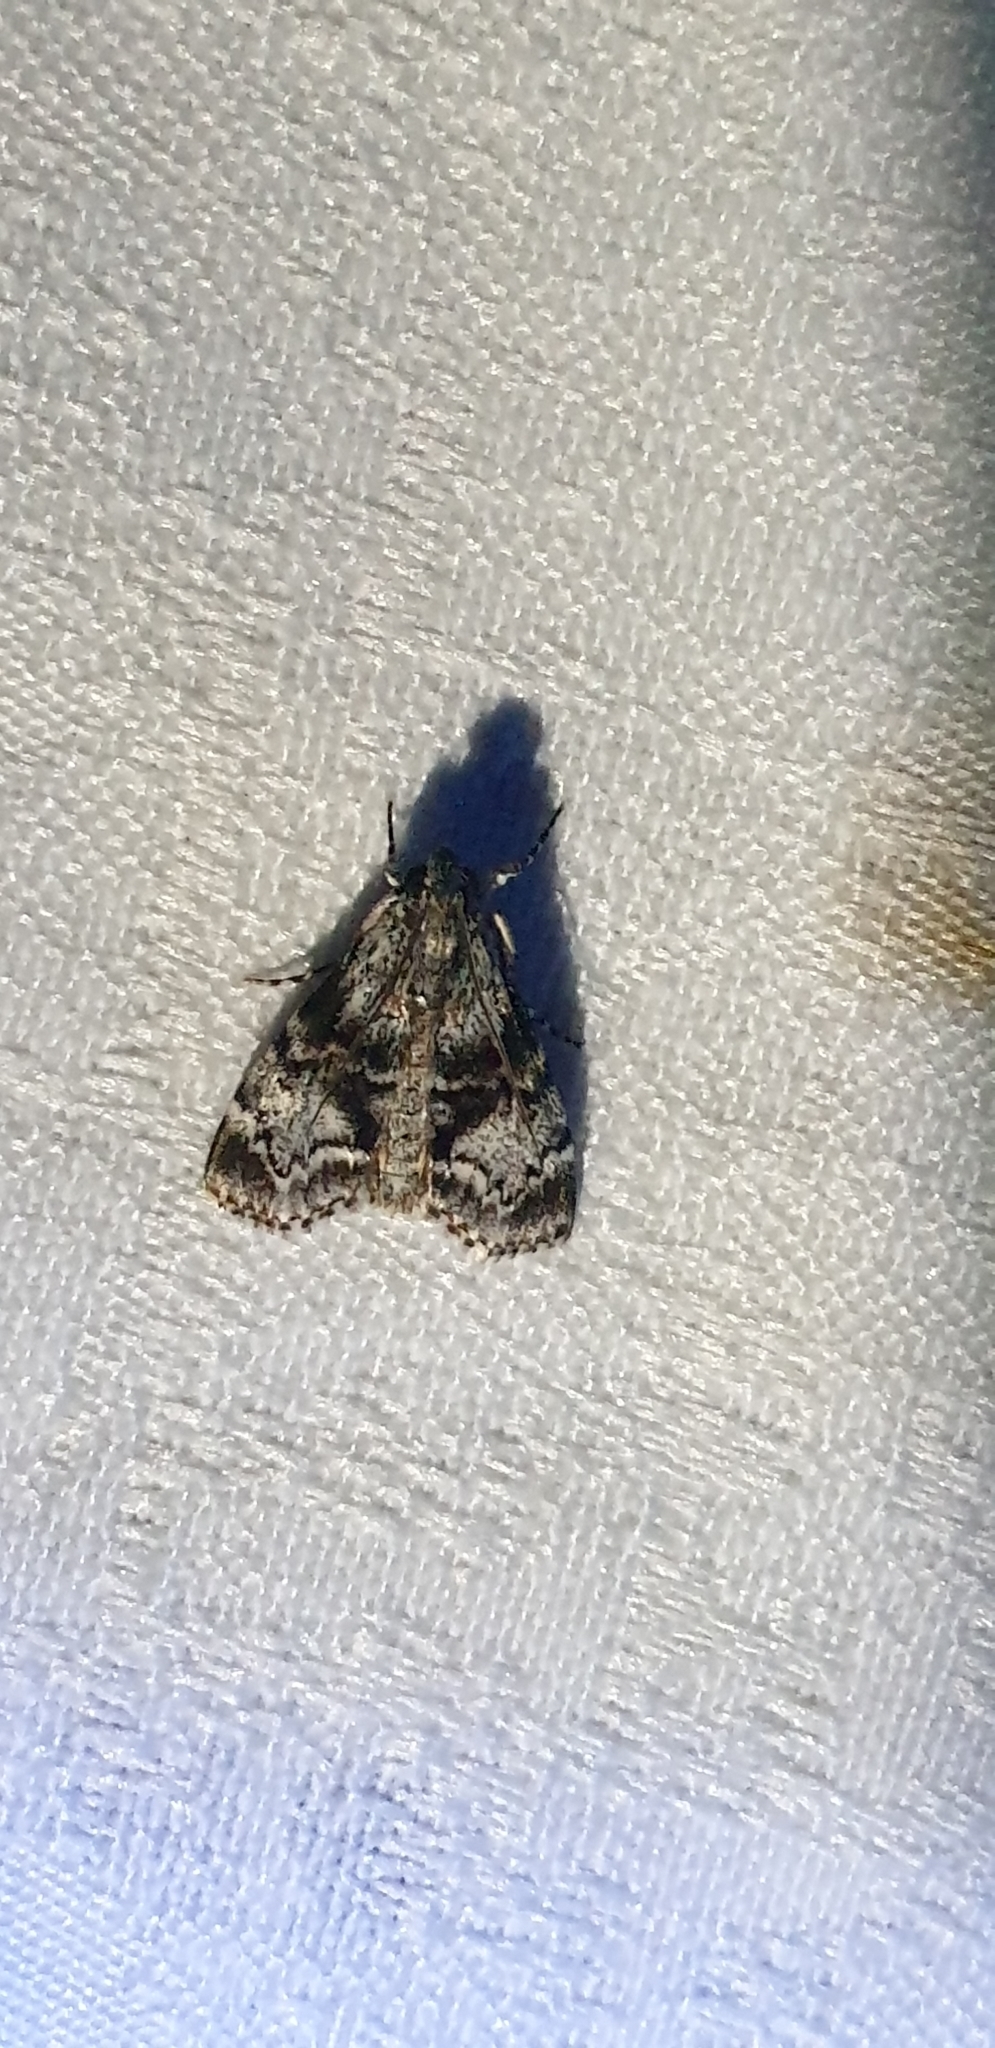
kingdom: Animalia
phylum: Arthropoda
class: Insecta
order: Lepidoptera
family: Pyralidae
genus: Salma
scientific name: Salma nephelodes
